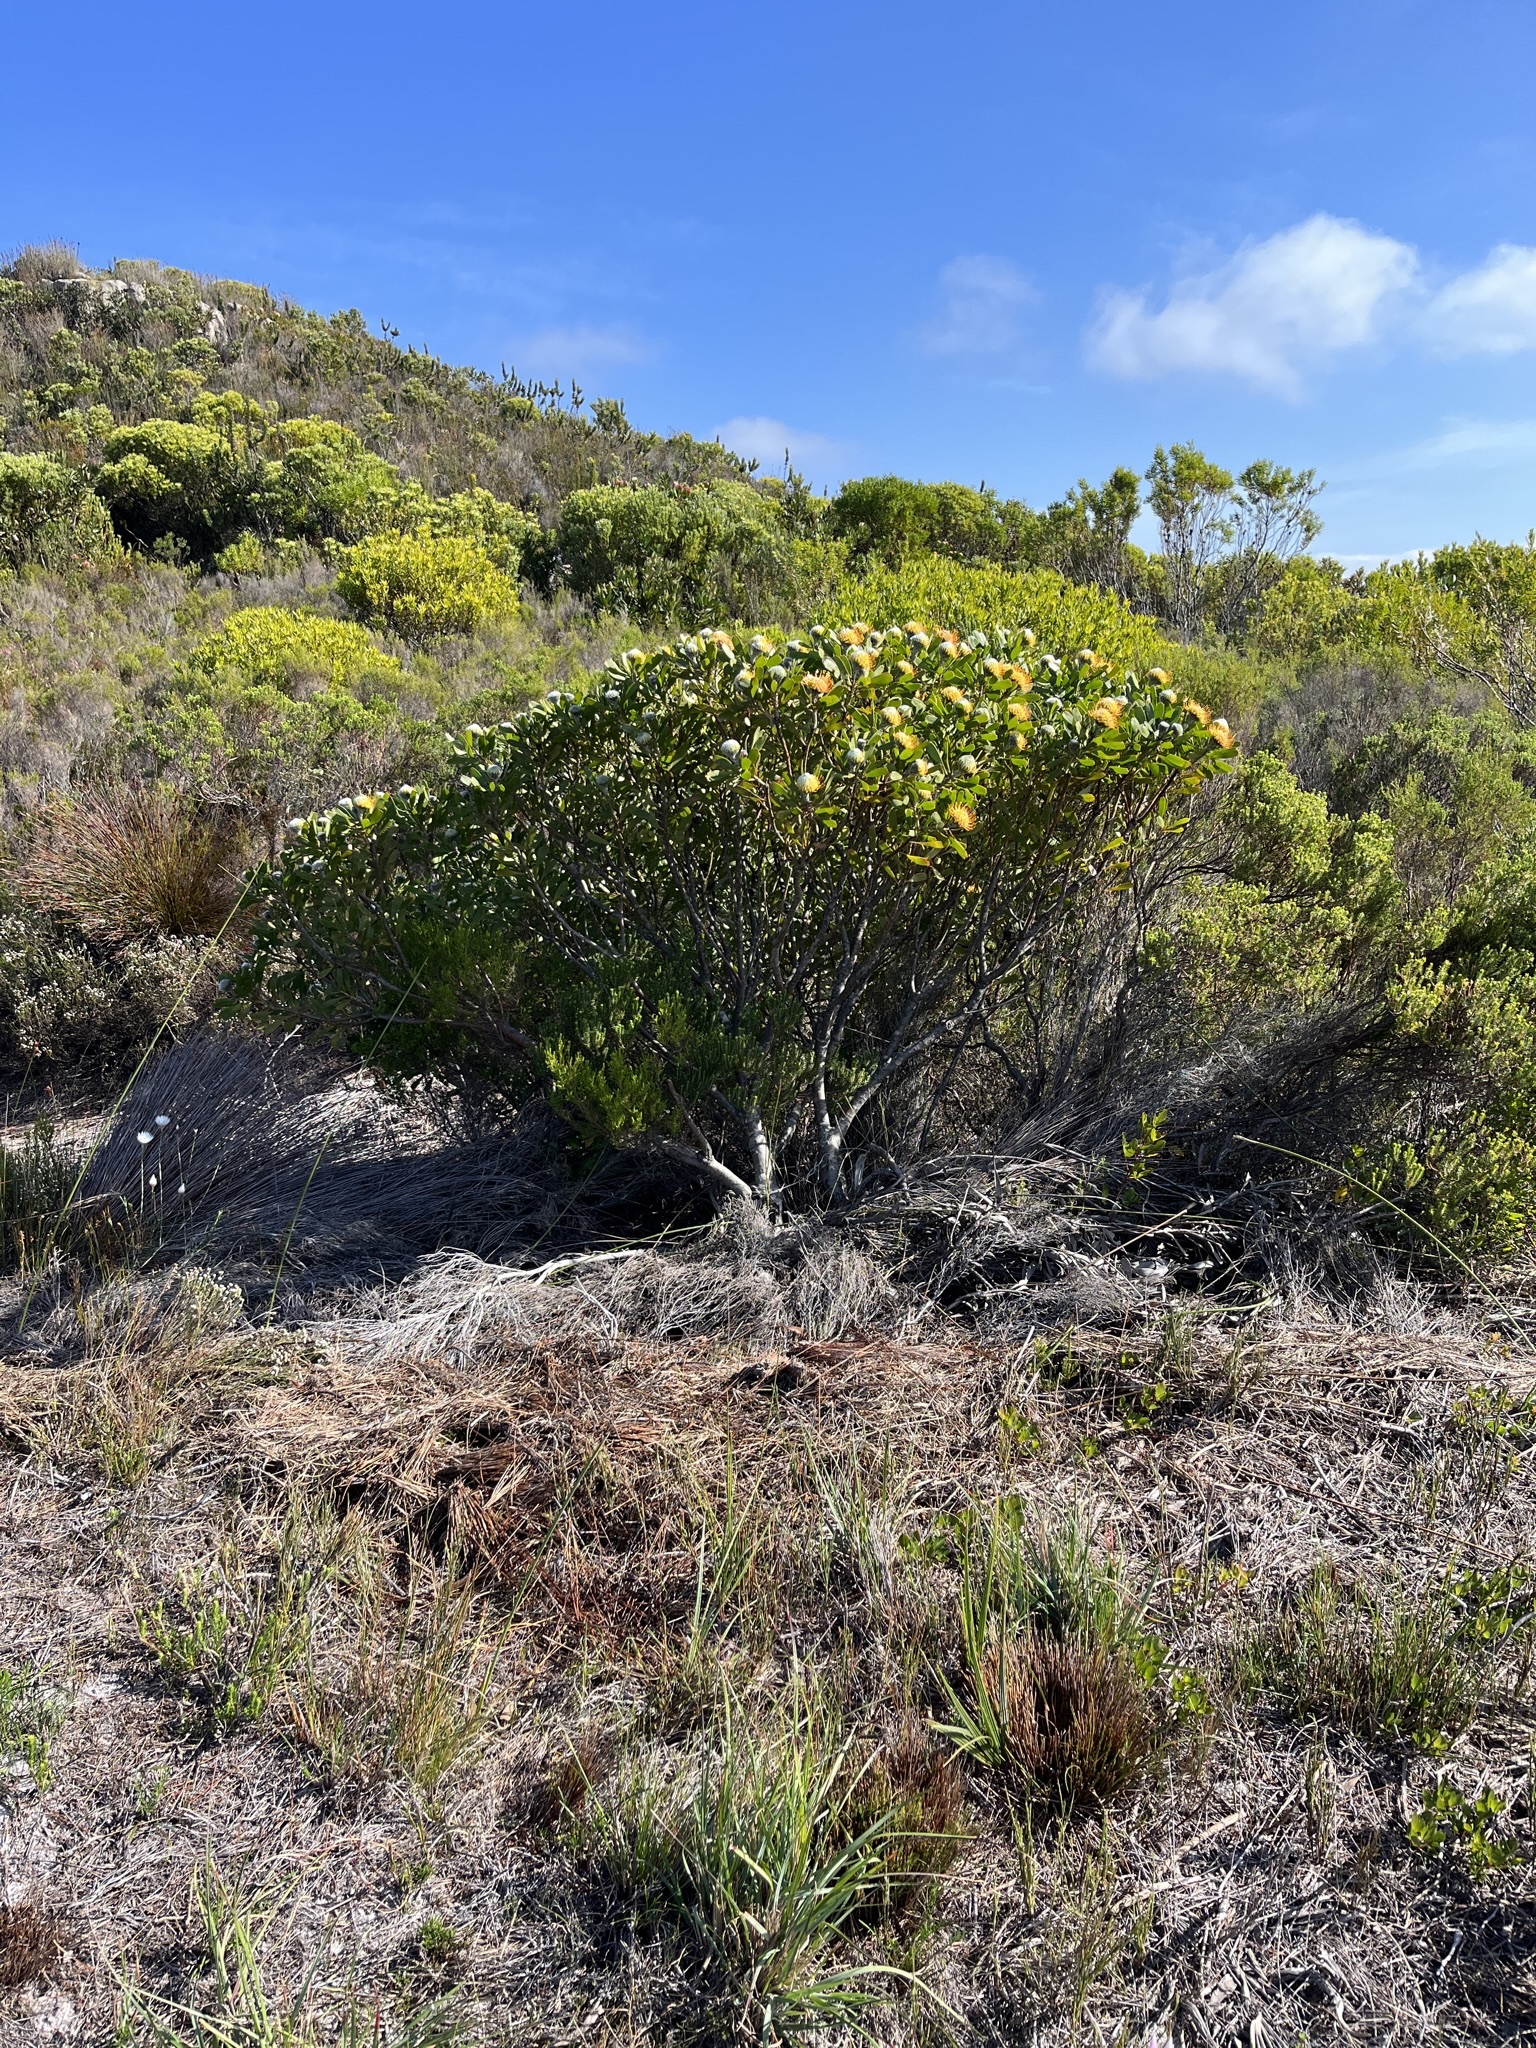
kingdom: Plantae
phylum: Tracheophyta
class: Magnoliopsida
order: Proteales
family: Proteaceae
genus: Leucospermum
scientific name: Leucospermum truncatum
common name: Limestone pincushion
